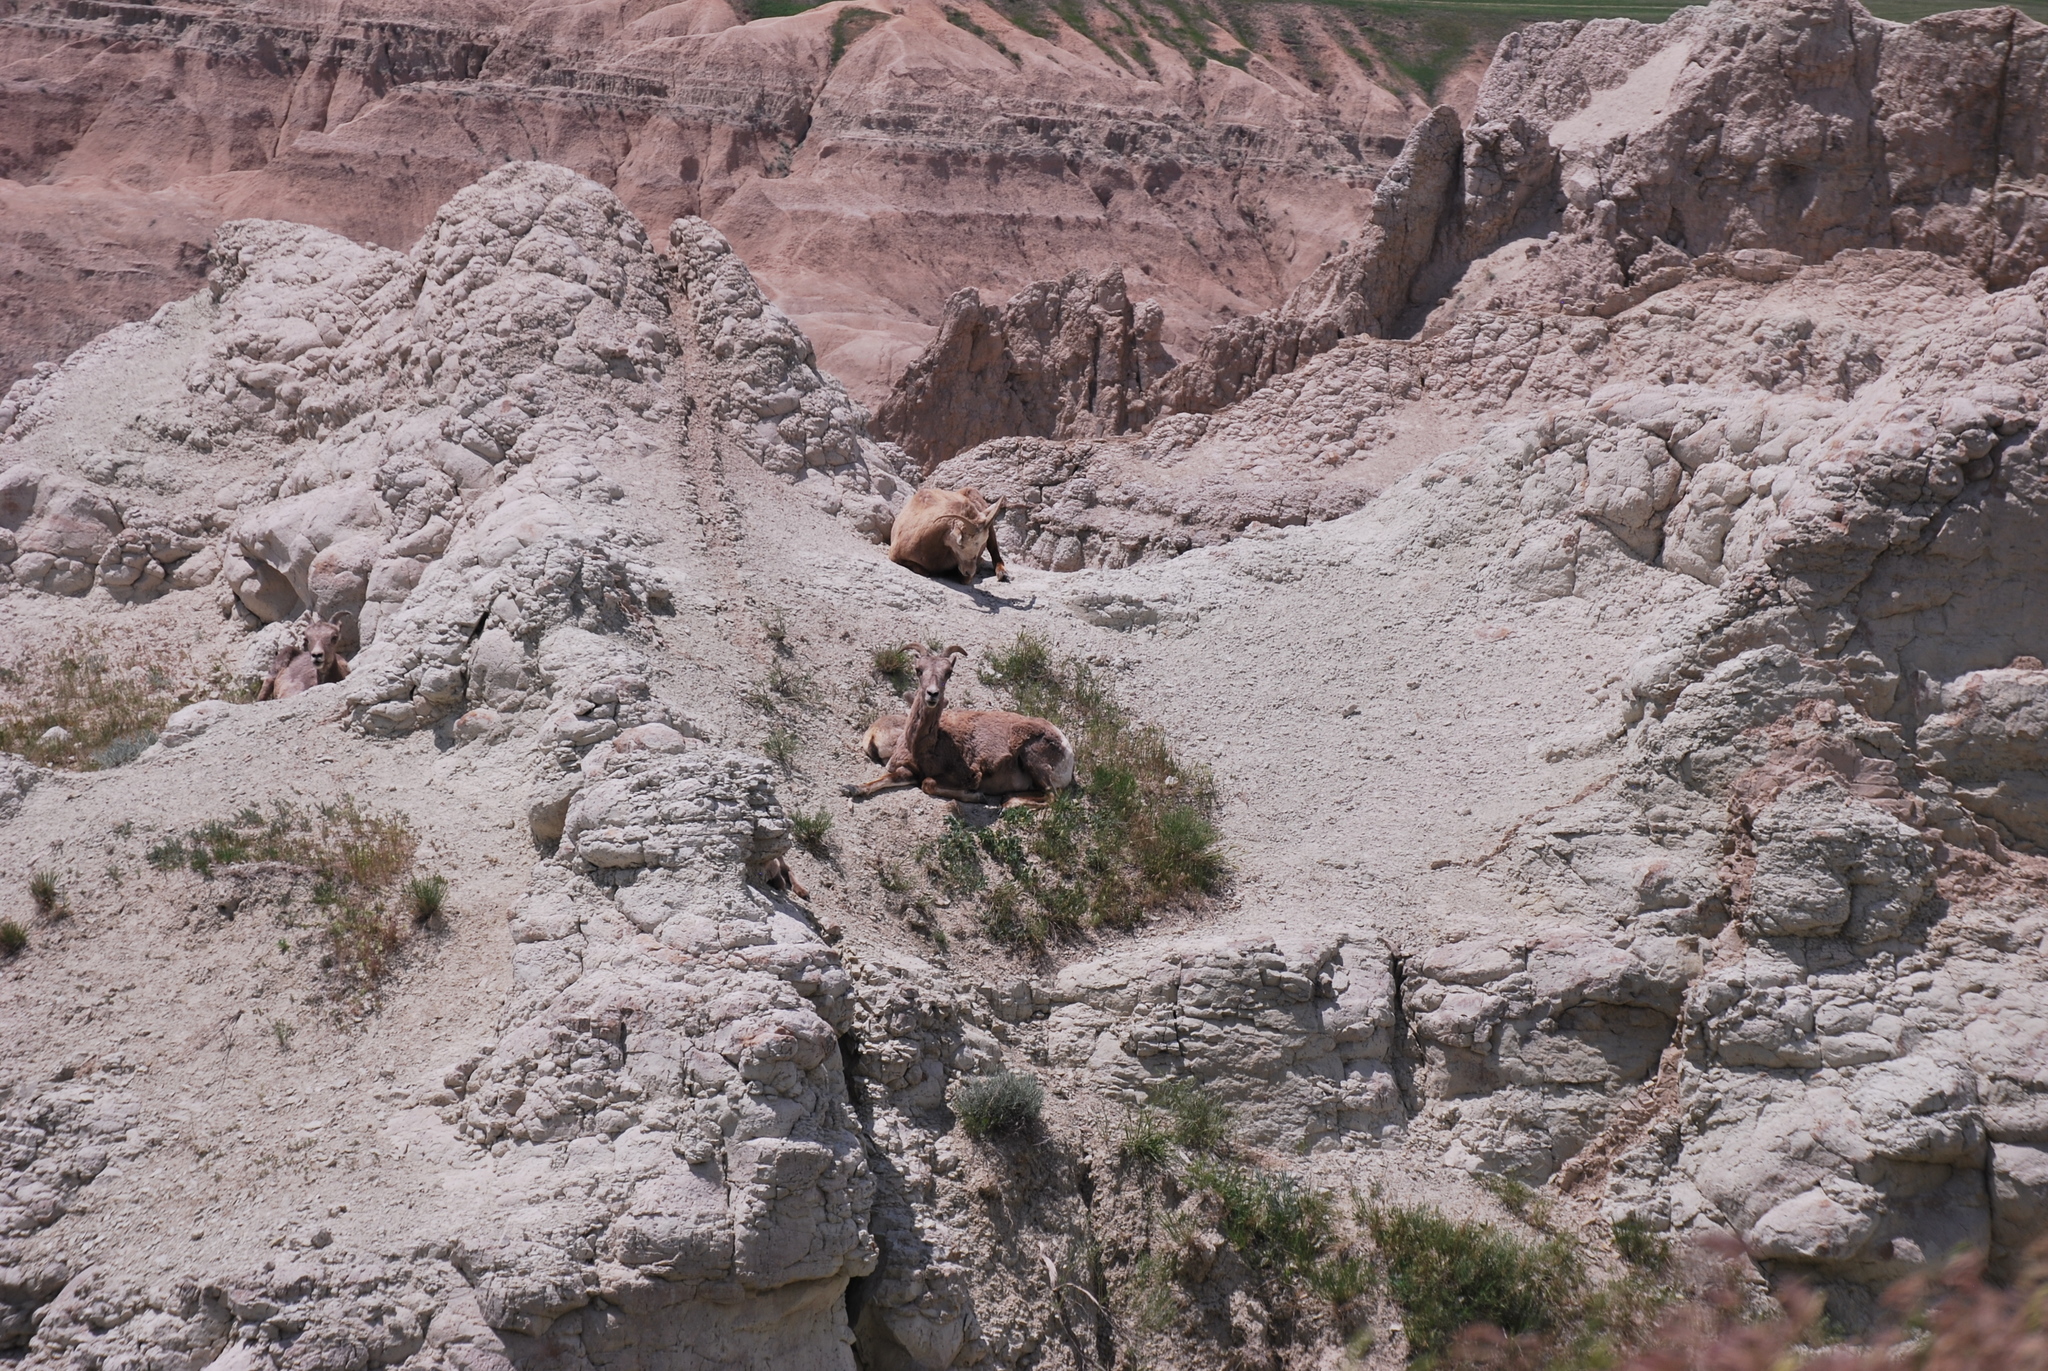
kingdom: Animalia
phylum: Chordata
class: Mammalia
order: Artiodactyla
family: Bovidae
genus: Ovis
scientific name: Ovis canadensis
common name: Bighorn sheep
